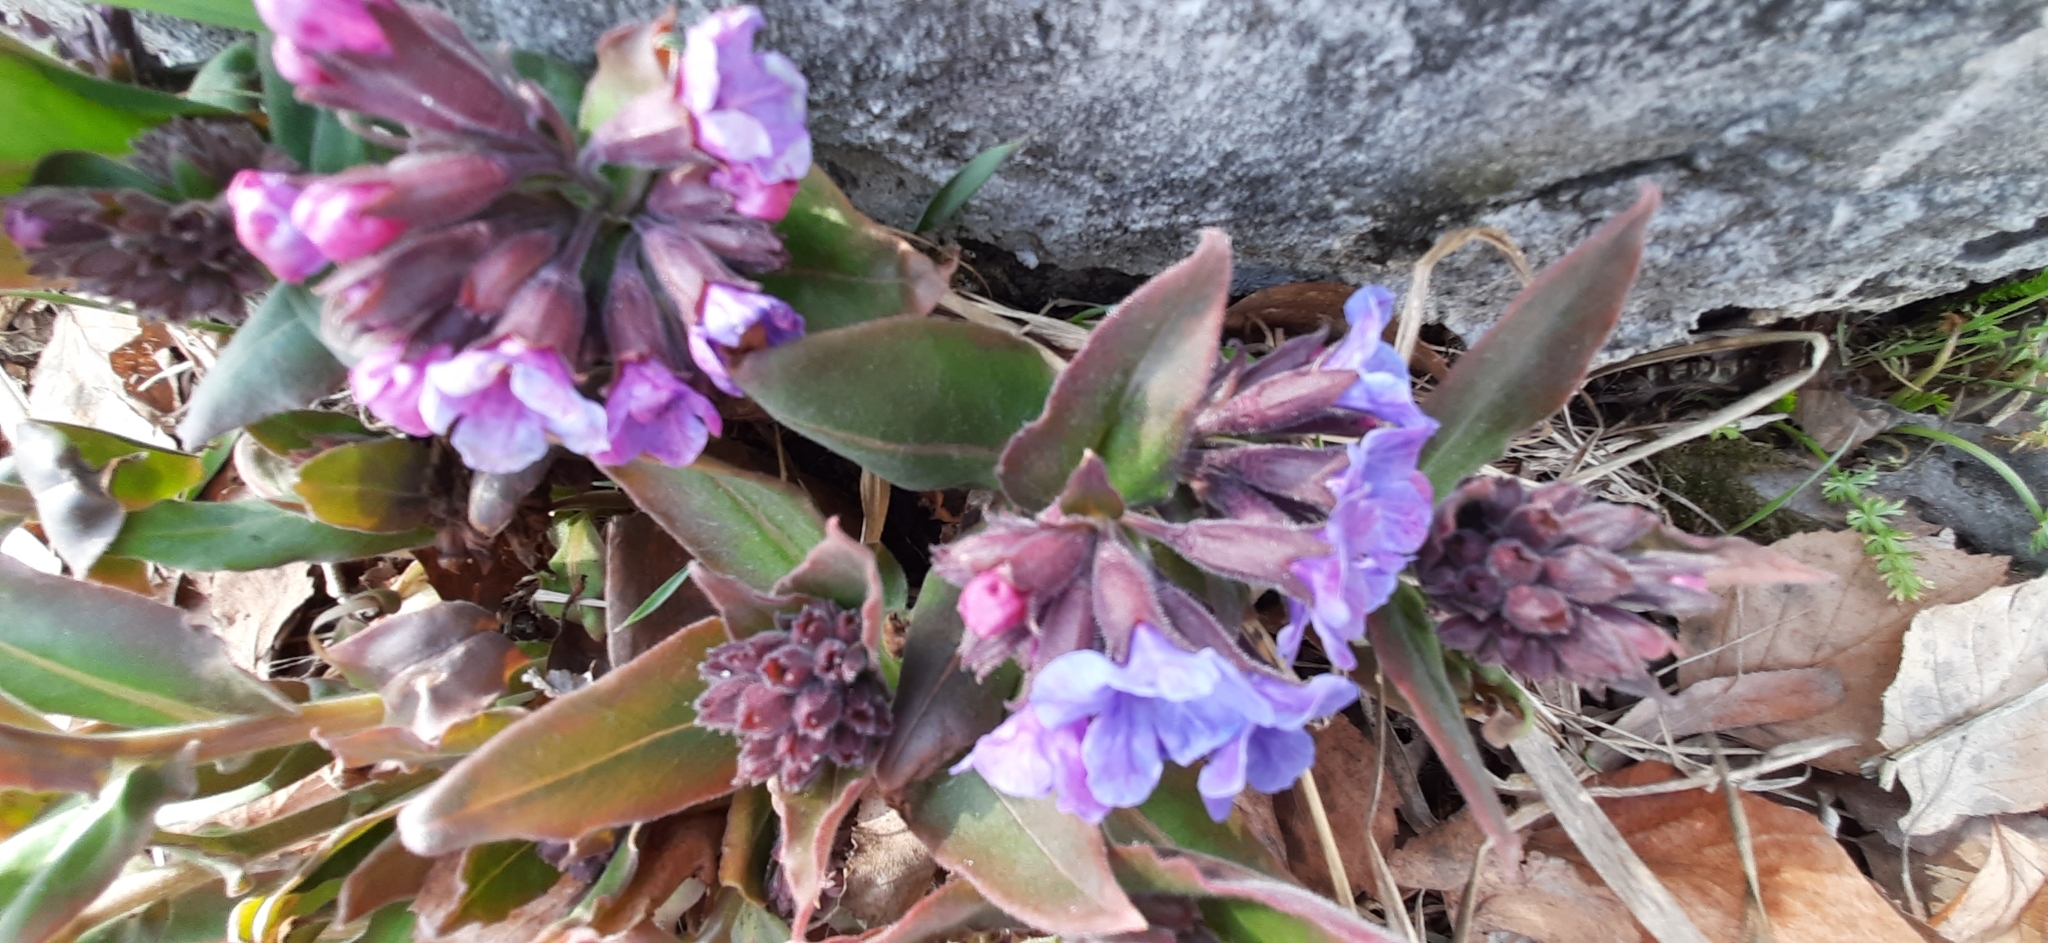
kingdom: Plantae
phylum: Tracheophyta
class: Magnoliopsida
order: Boraginales
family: Boraginaceae
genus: Pulmonaria
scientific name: Pulmonaria mollis
